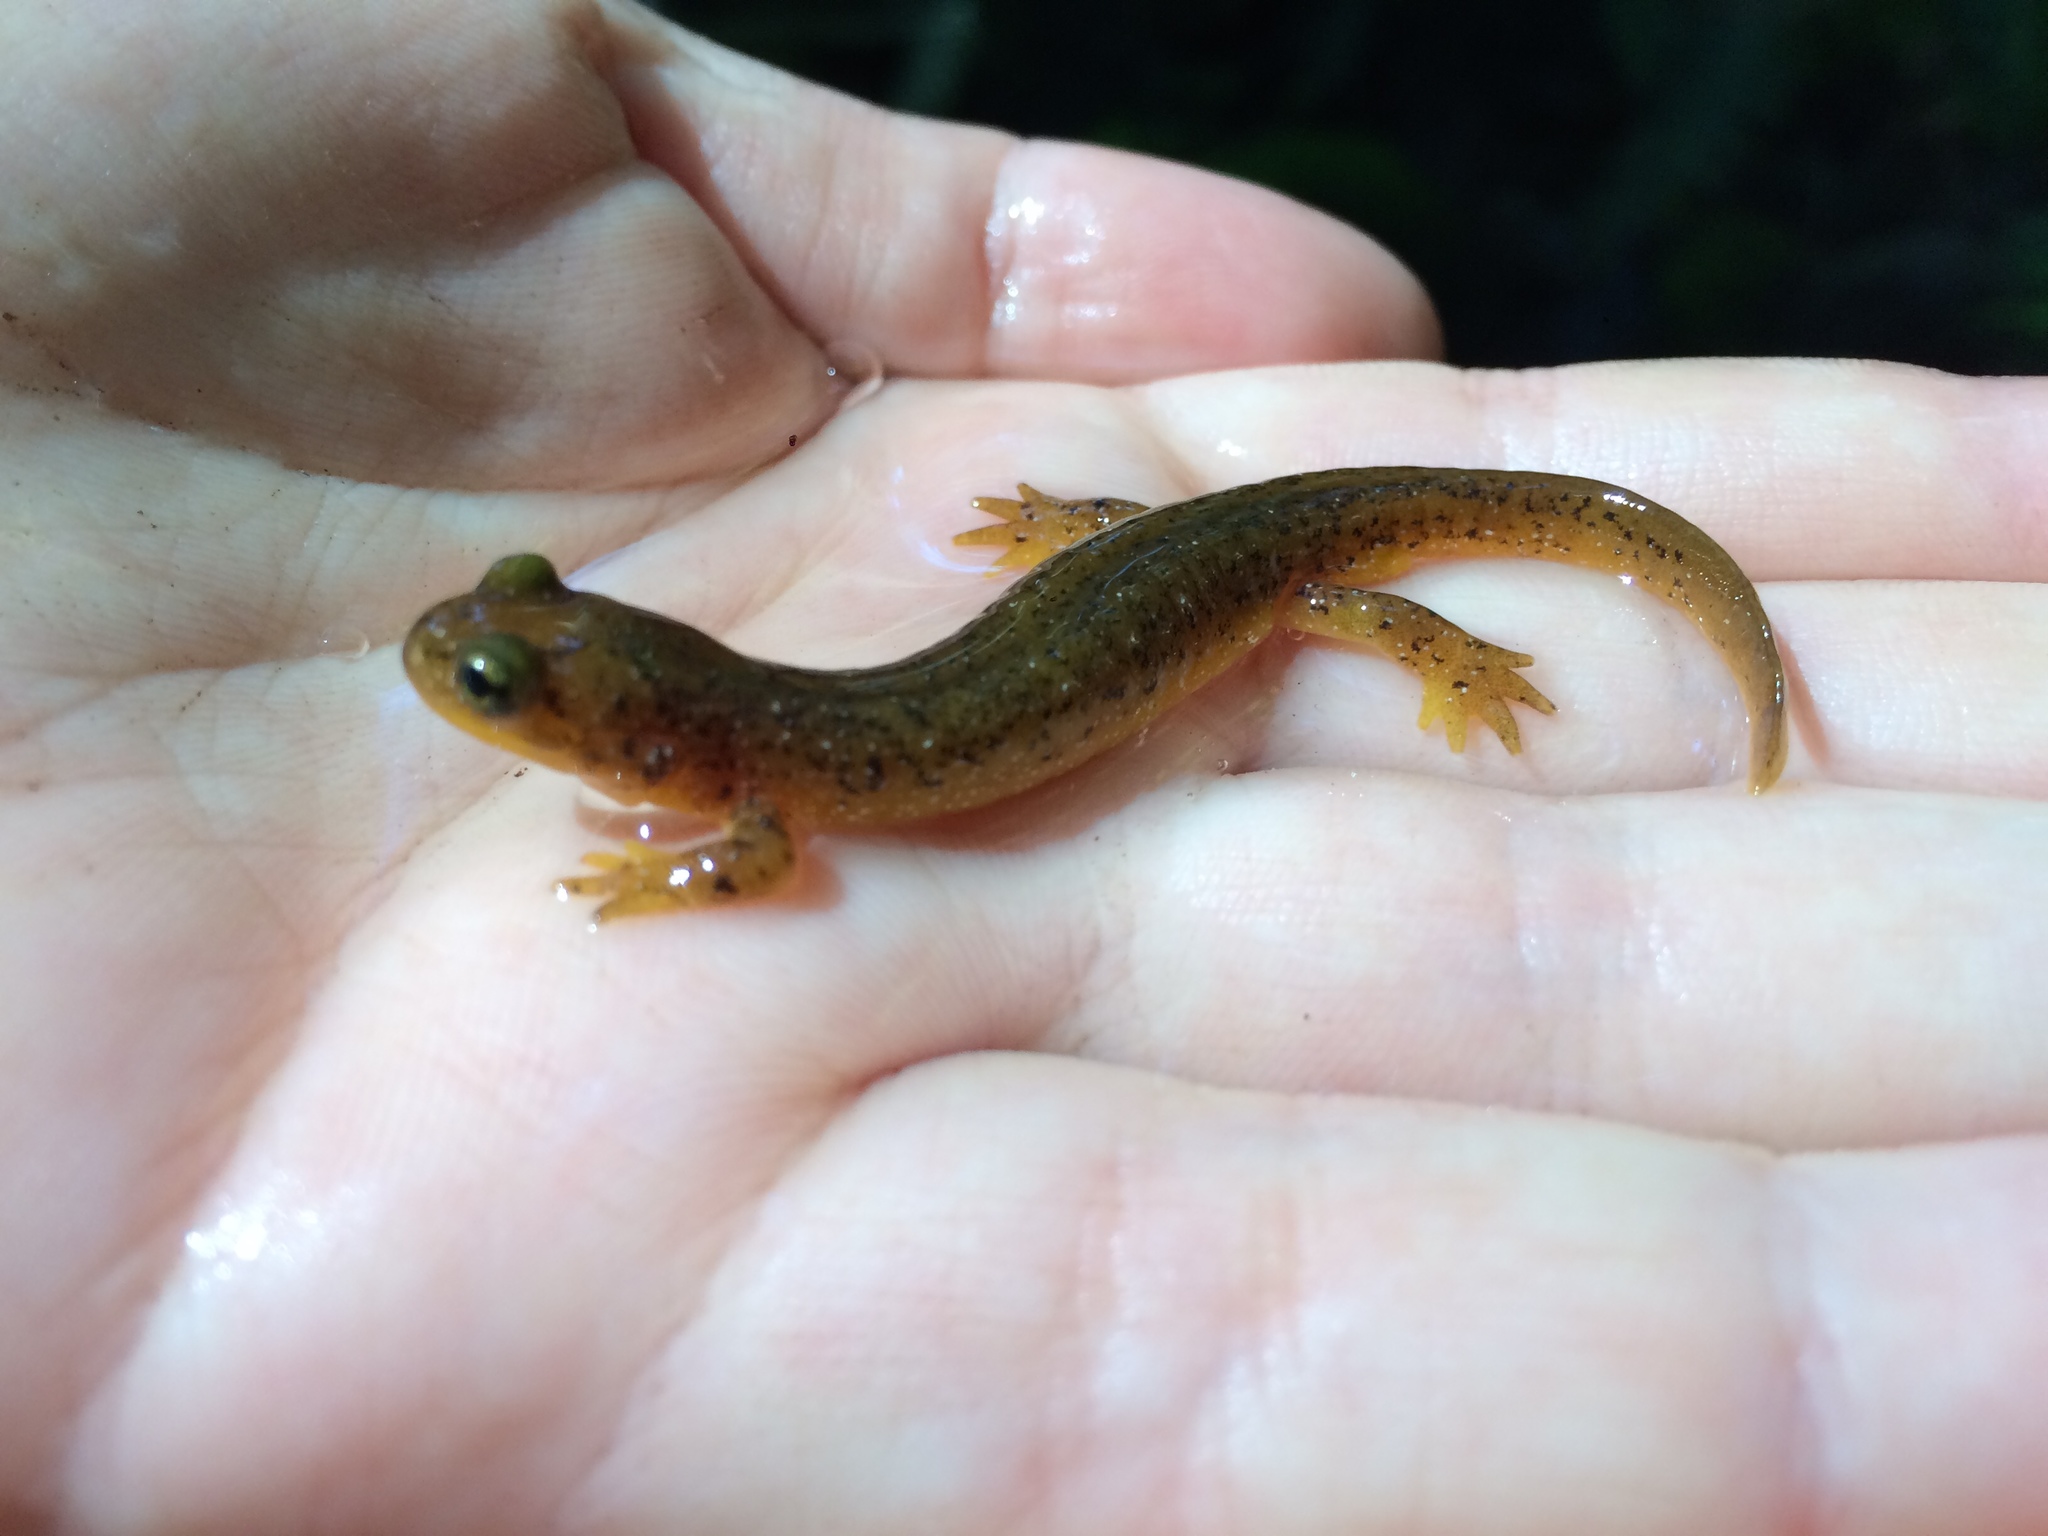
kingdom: Animalia
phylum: Chordata
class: Amphibia
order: Caudata
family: Rhyacotritonidae
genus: Rhyacotriton
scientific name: Rhyacotriton variegatus
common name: Southern torrent salamander
